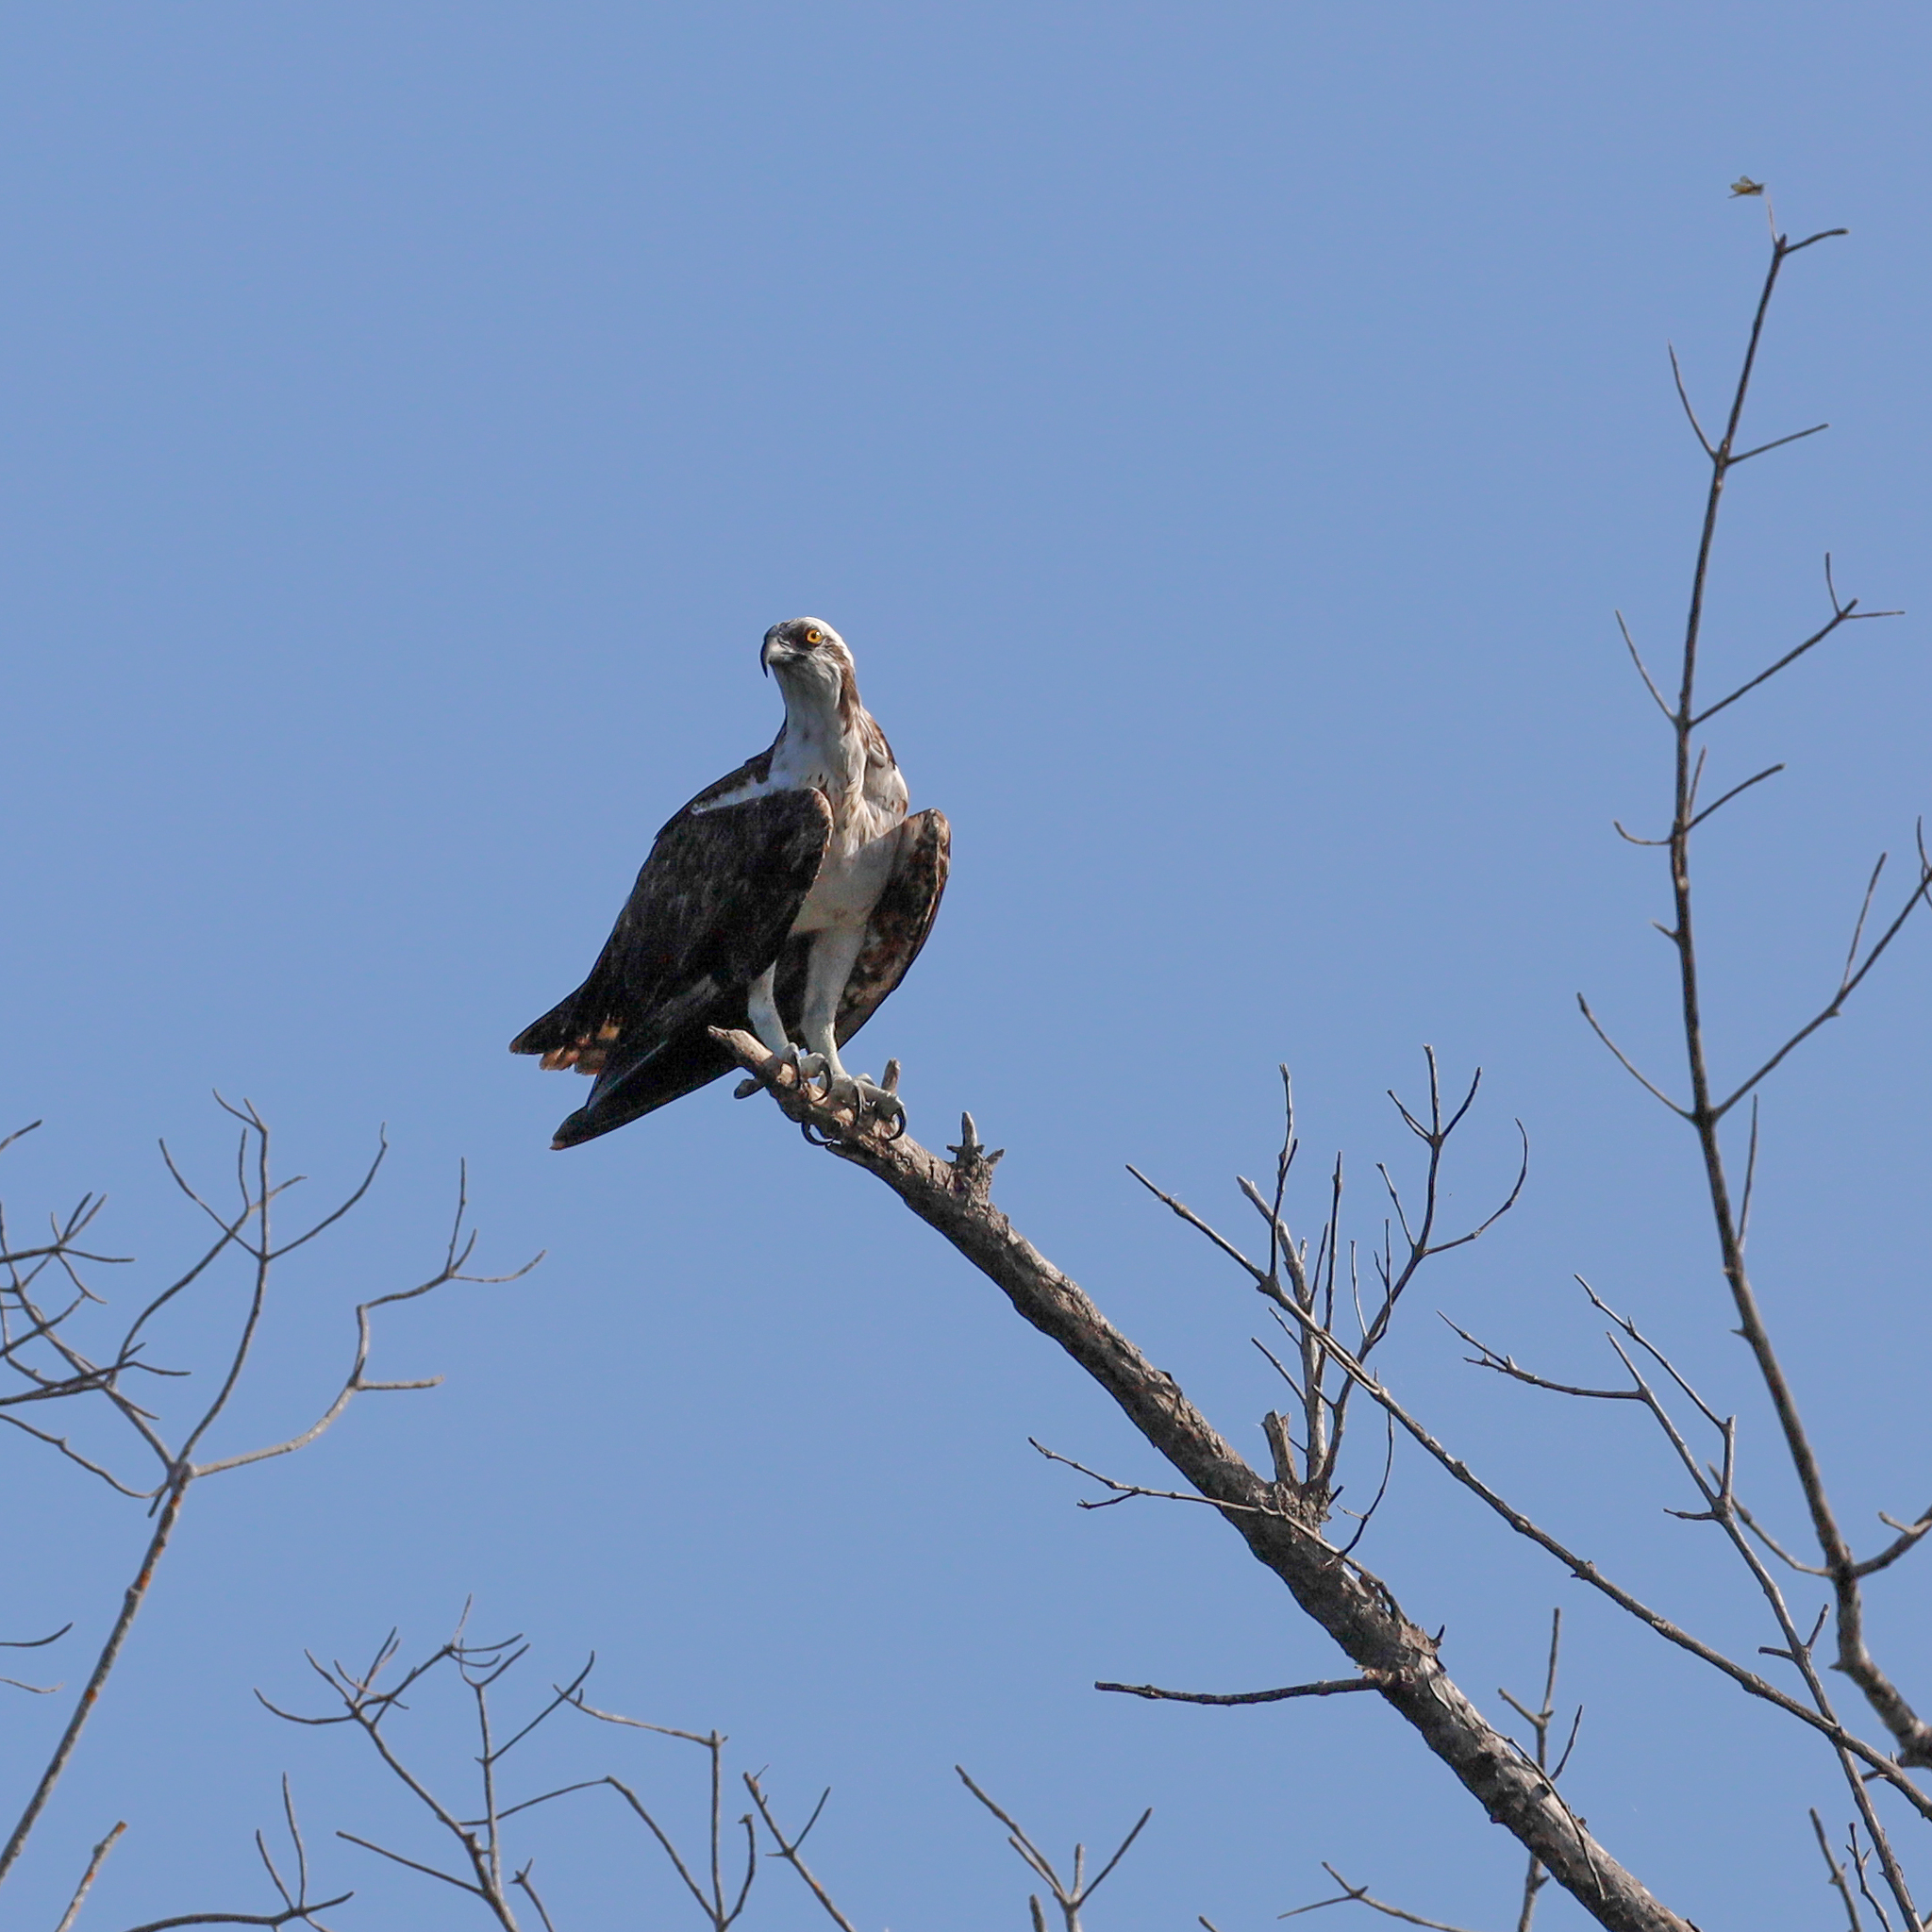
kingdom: Animalia
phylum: Chordata
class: Aves
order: Accipitriformes
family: Pandionidae
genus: Pandion
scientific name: Pandion haliaetus
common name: Osprey
